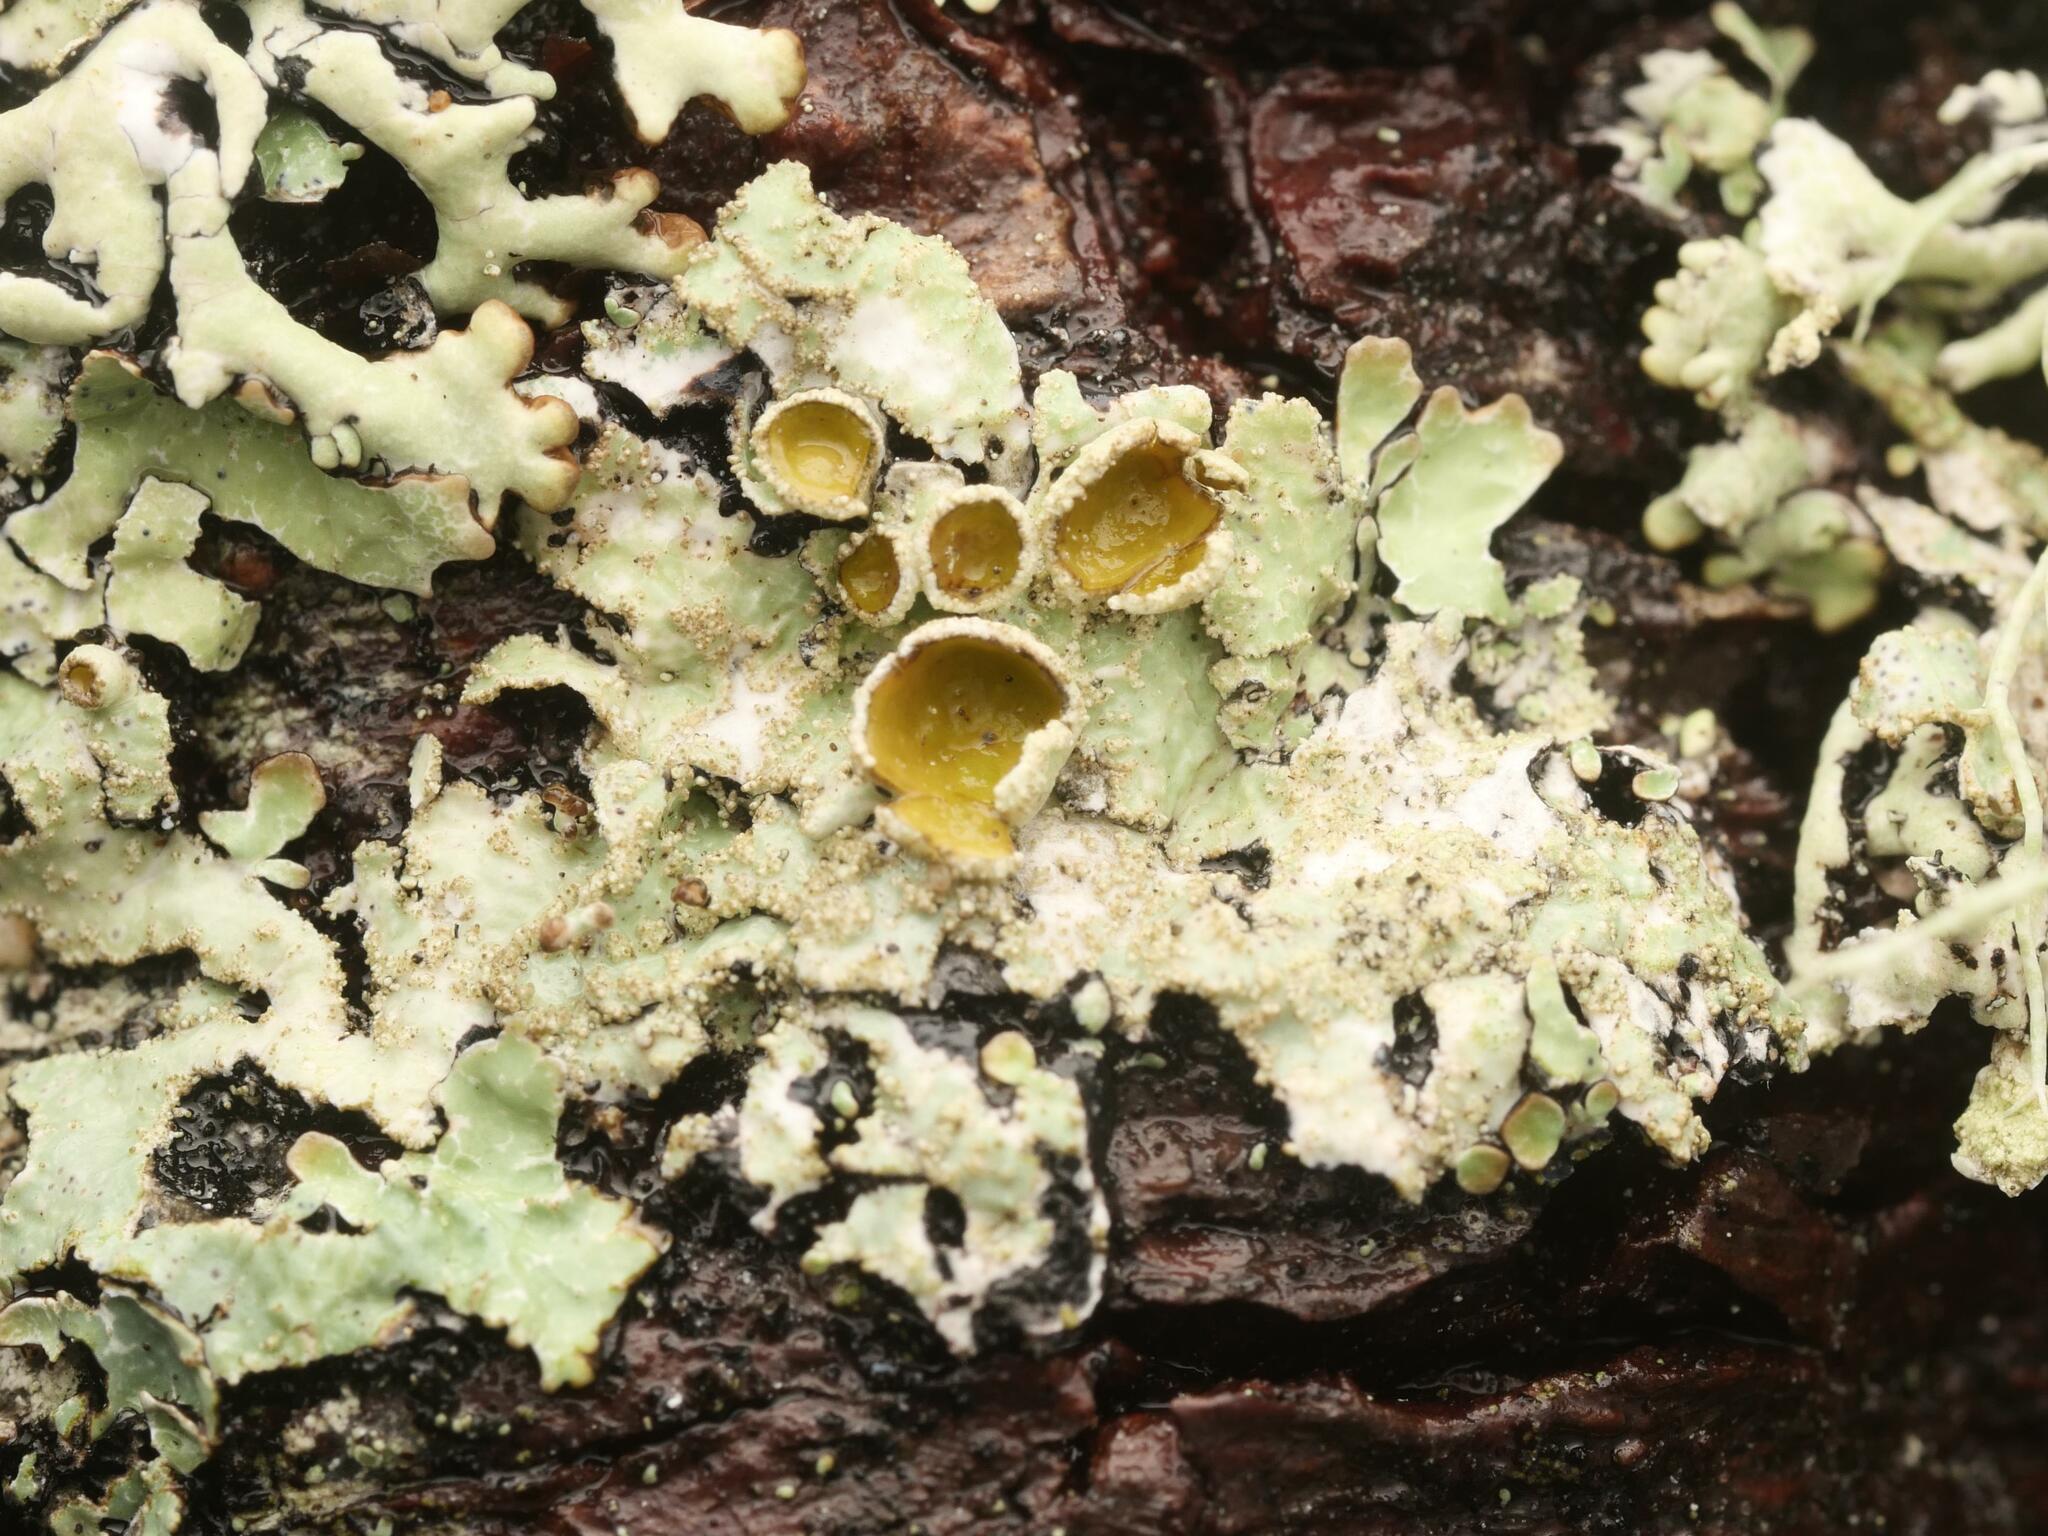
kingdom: Fungi
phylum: Ascomycota
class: Lecanoromycetes
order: Lecanorales
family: Parmeliaceae
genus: Parmelia
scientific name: Parmelia squarrosa
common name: Bottle brush shield lichen
